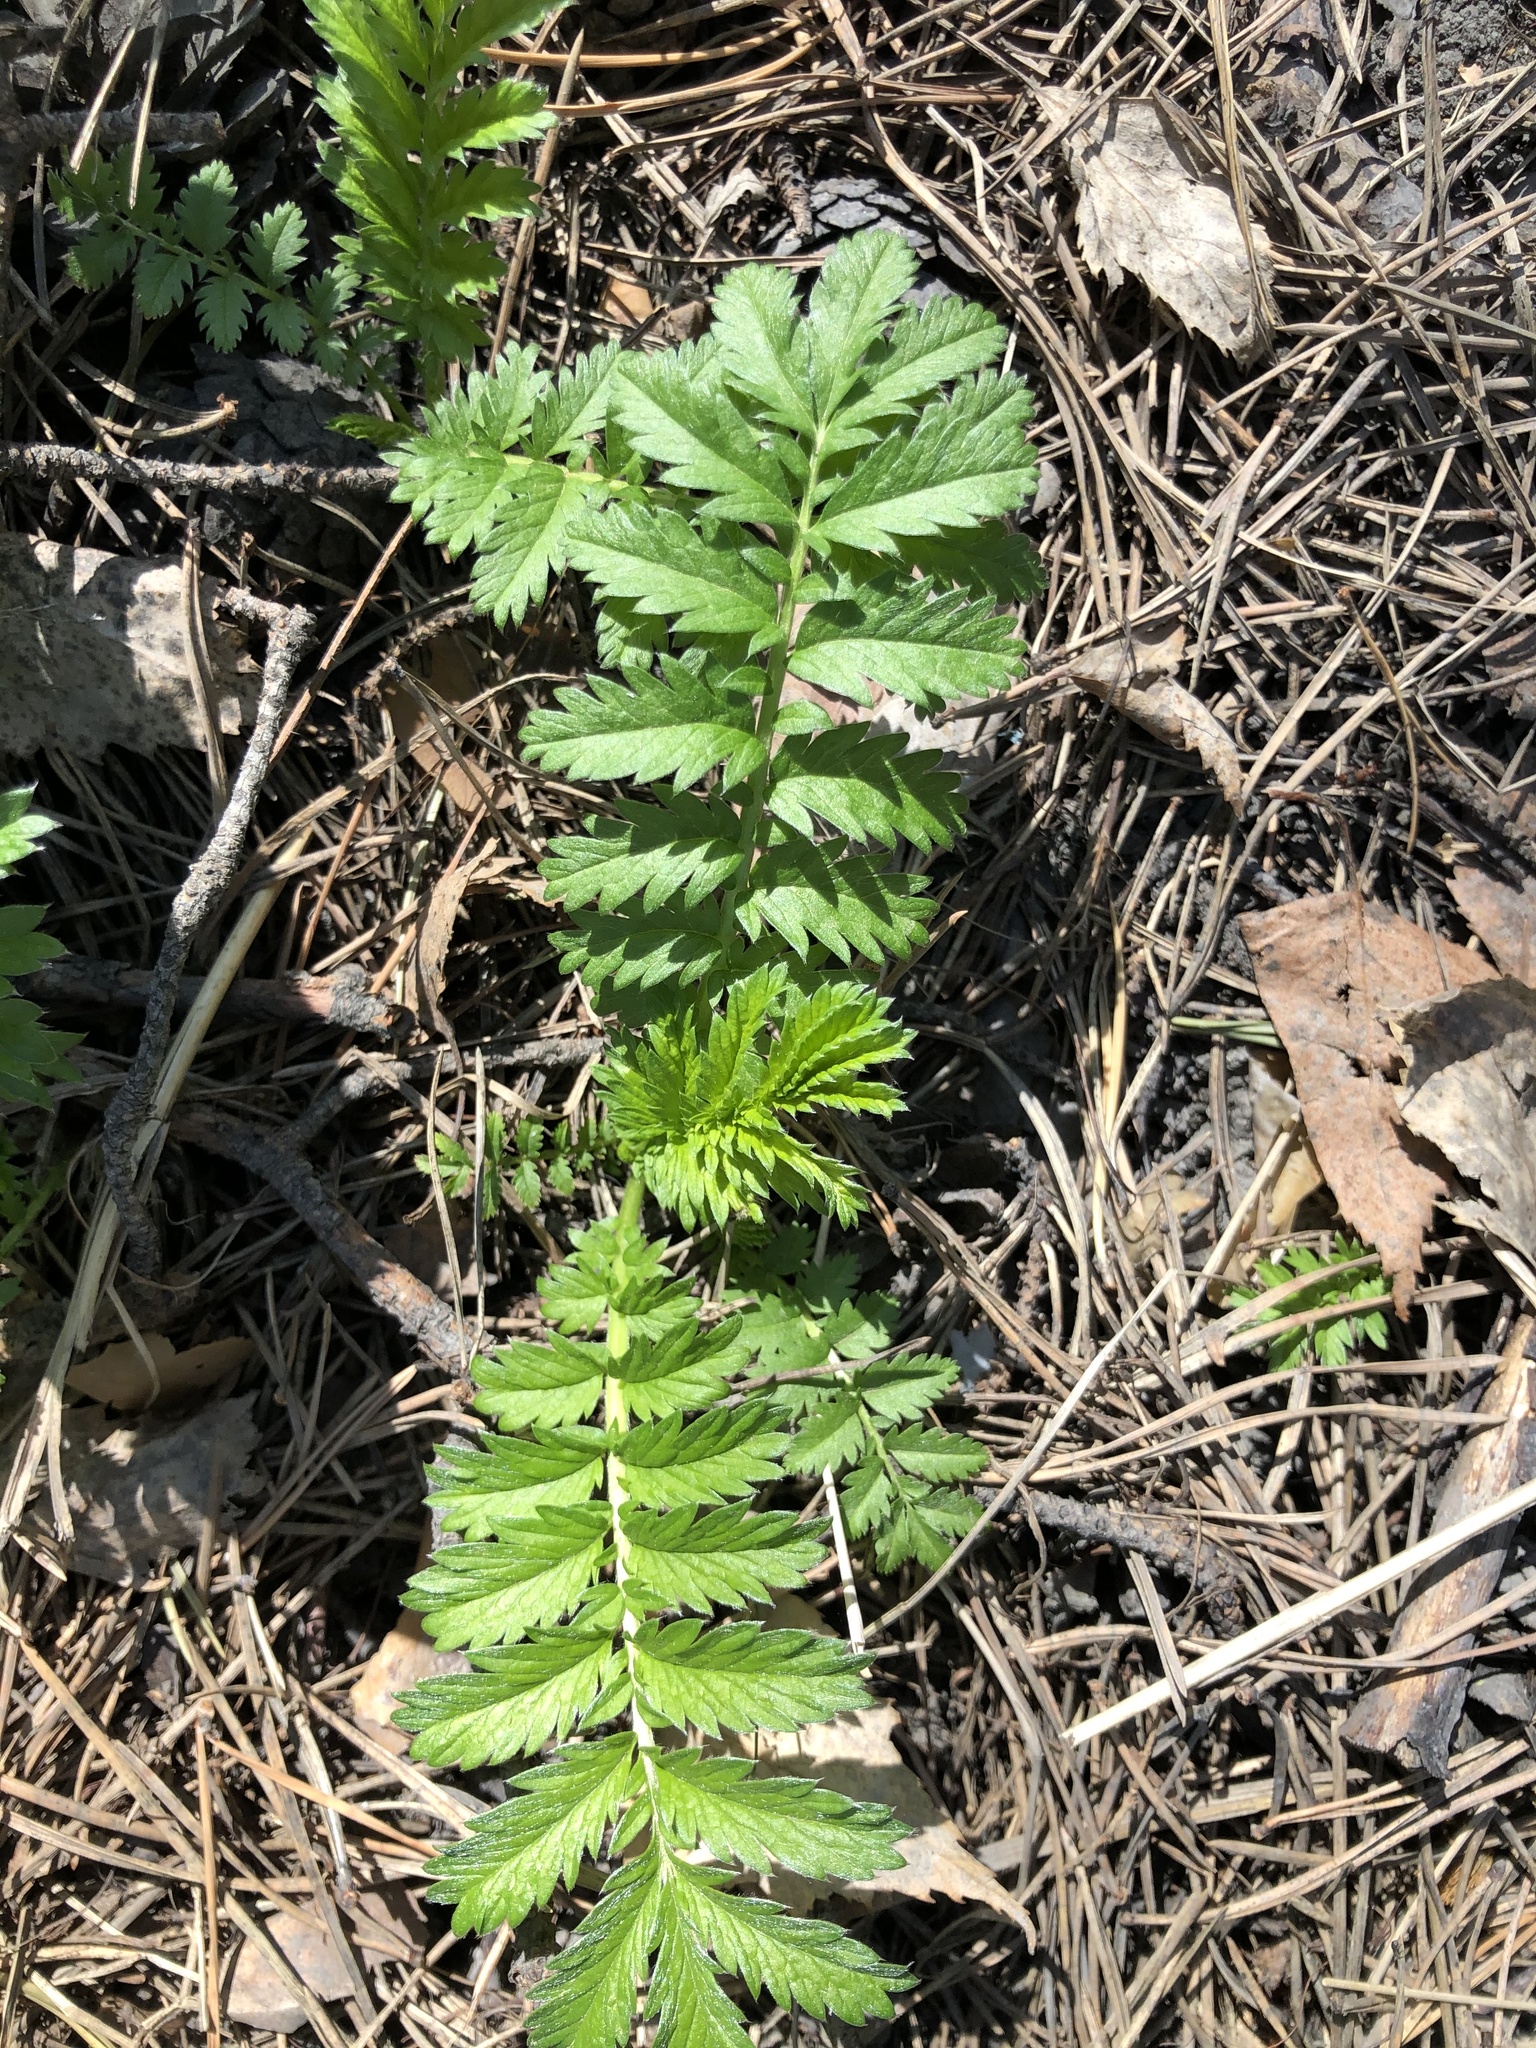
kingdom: Plantae
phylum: Tracheophyta
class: Magnoliopsida
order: Rosales
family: Rosaceae
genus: Argentina
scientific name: Argentina anserina
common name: Common silverweed
